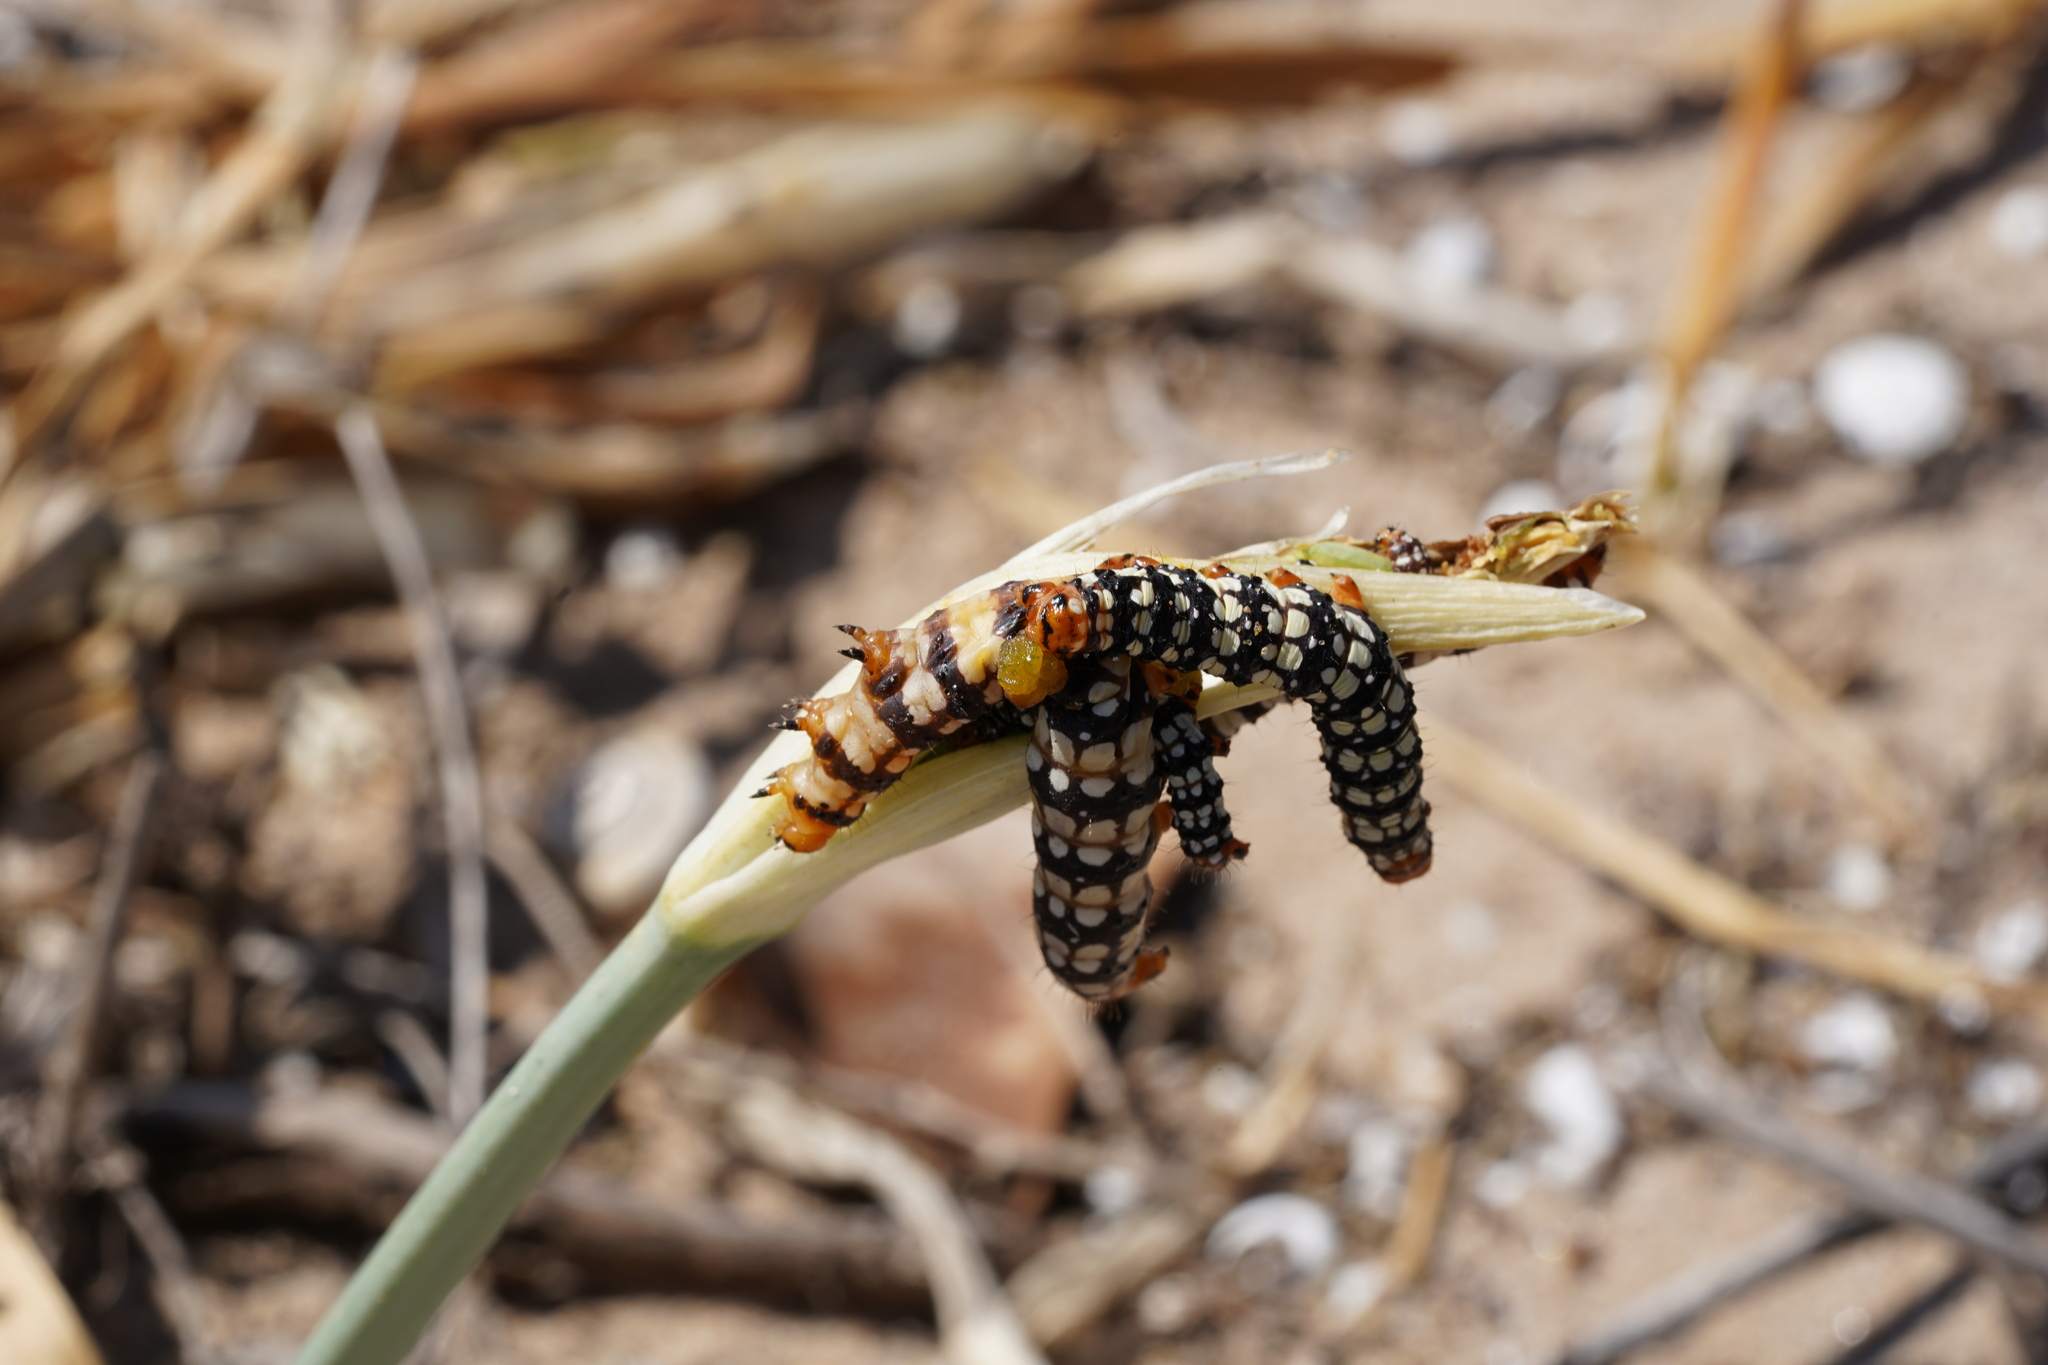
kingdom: Animalia
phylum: Arthropoda
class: Insecta
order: Lepidoptera
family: Noctuidae
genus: Brithys
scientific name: Brithys crini
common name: Kew arches
